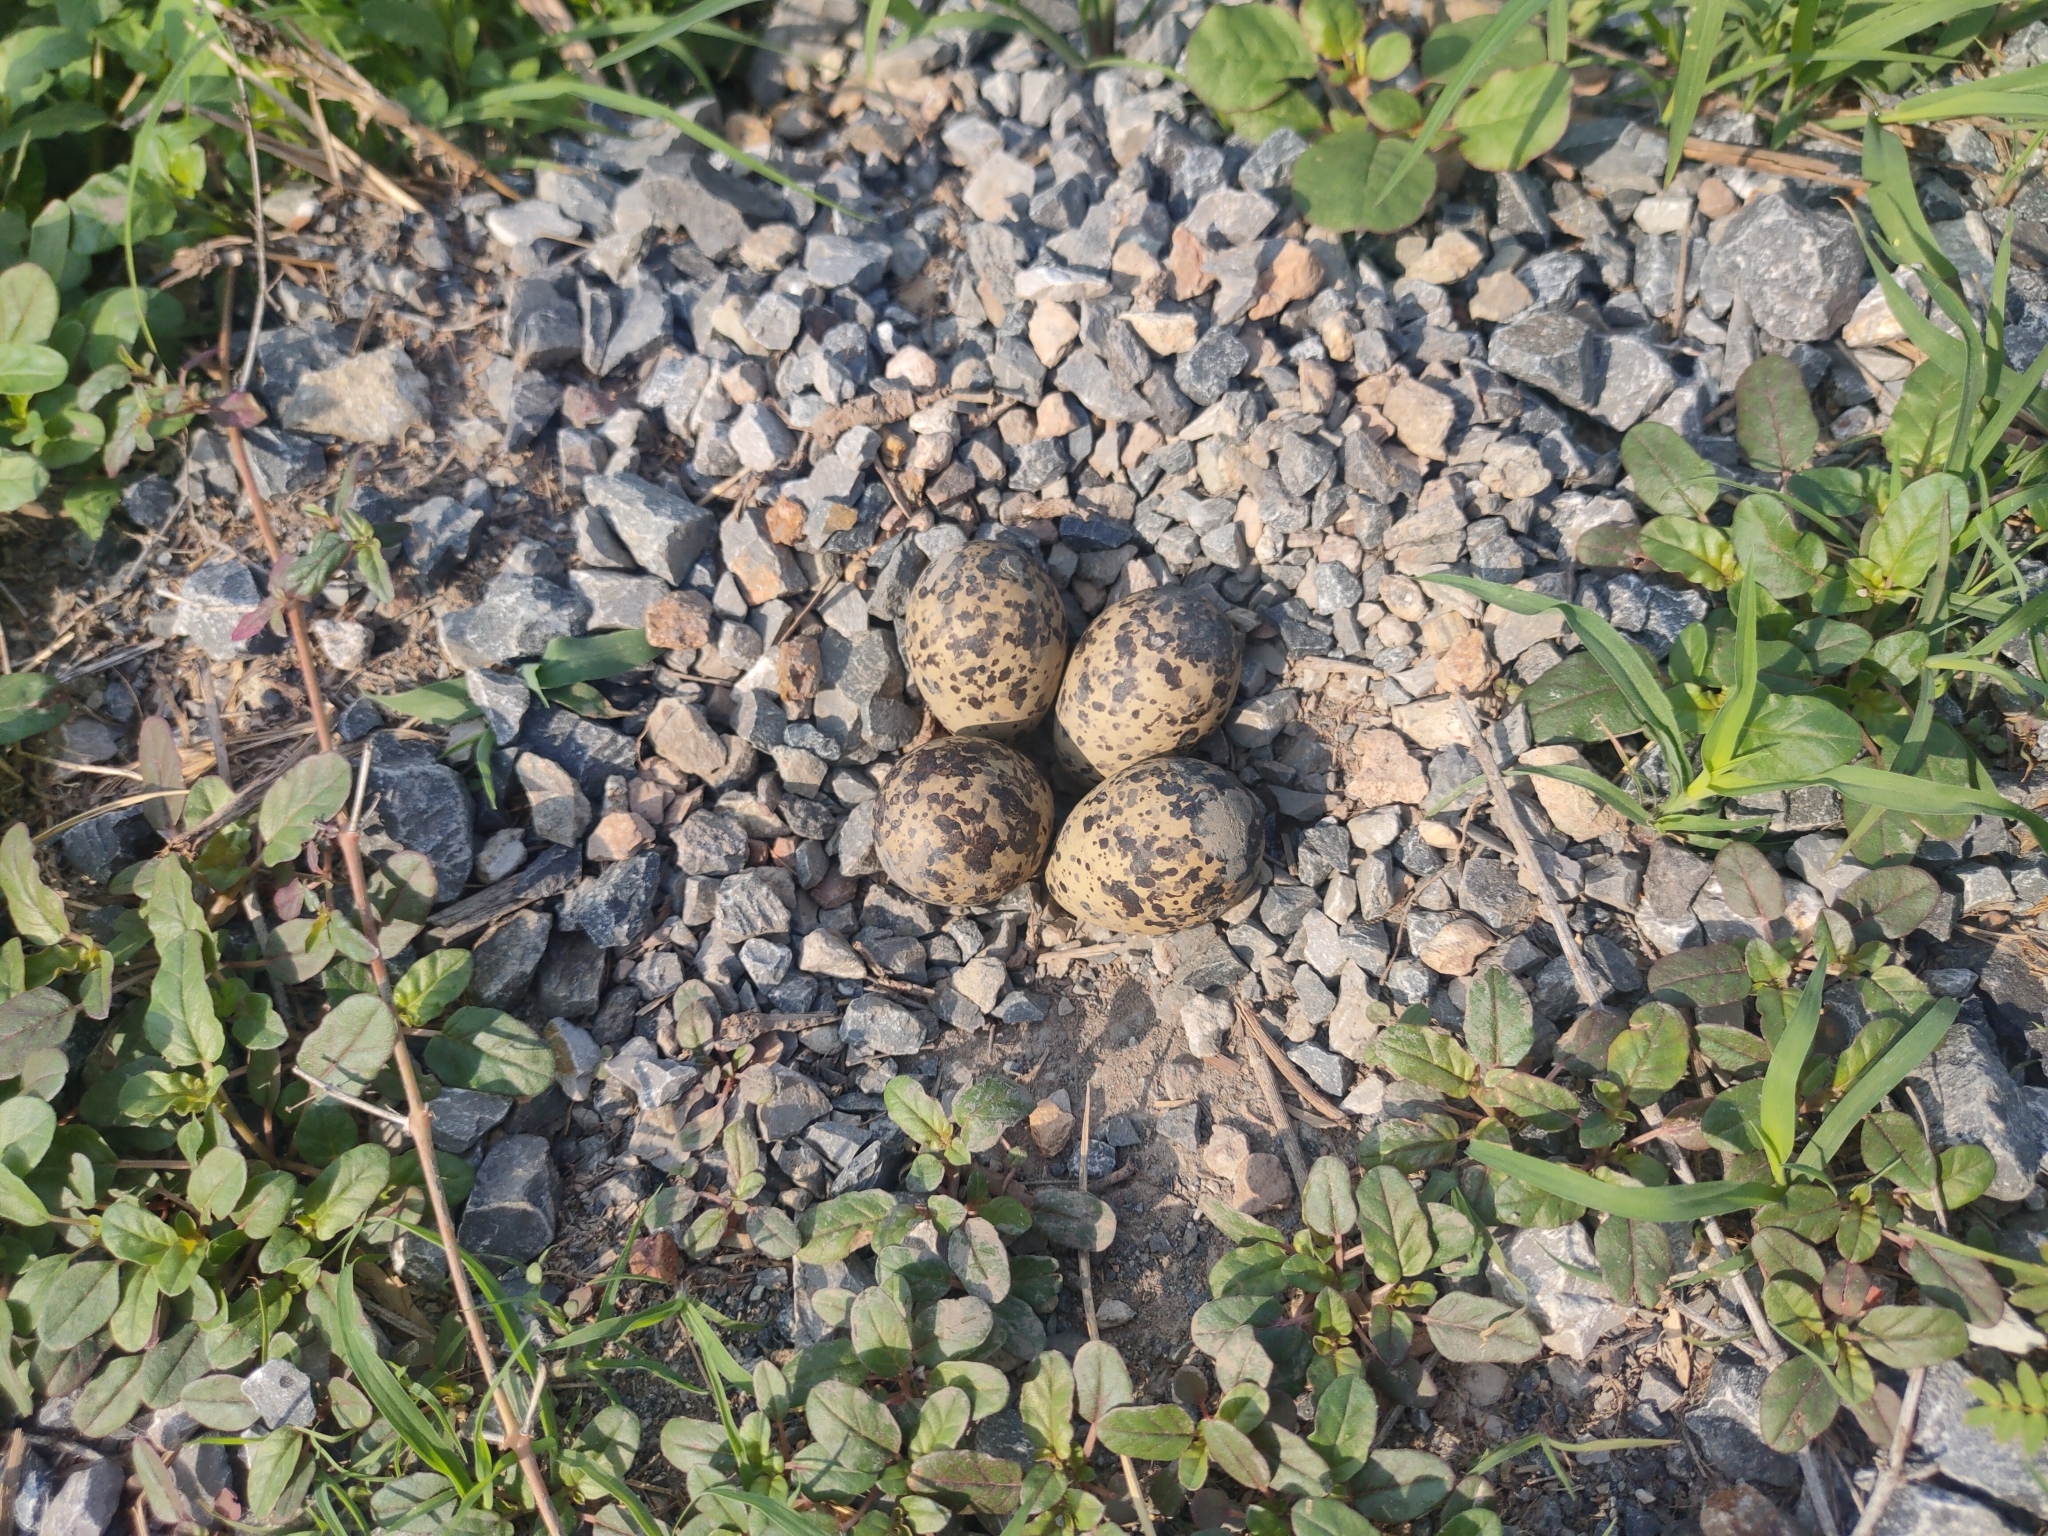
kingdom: Animalia
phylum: Chordata
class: Aves
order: Charadriiformes
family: Charadriidae
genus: Vanellus
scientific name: Vanellus indicus
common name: Red-wattled lapwing
